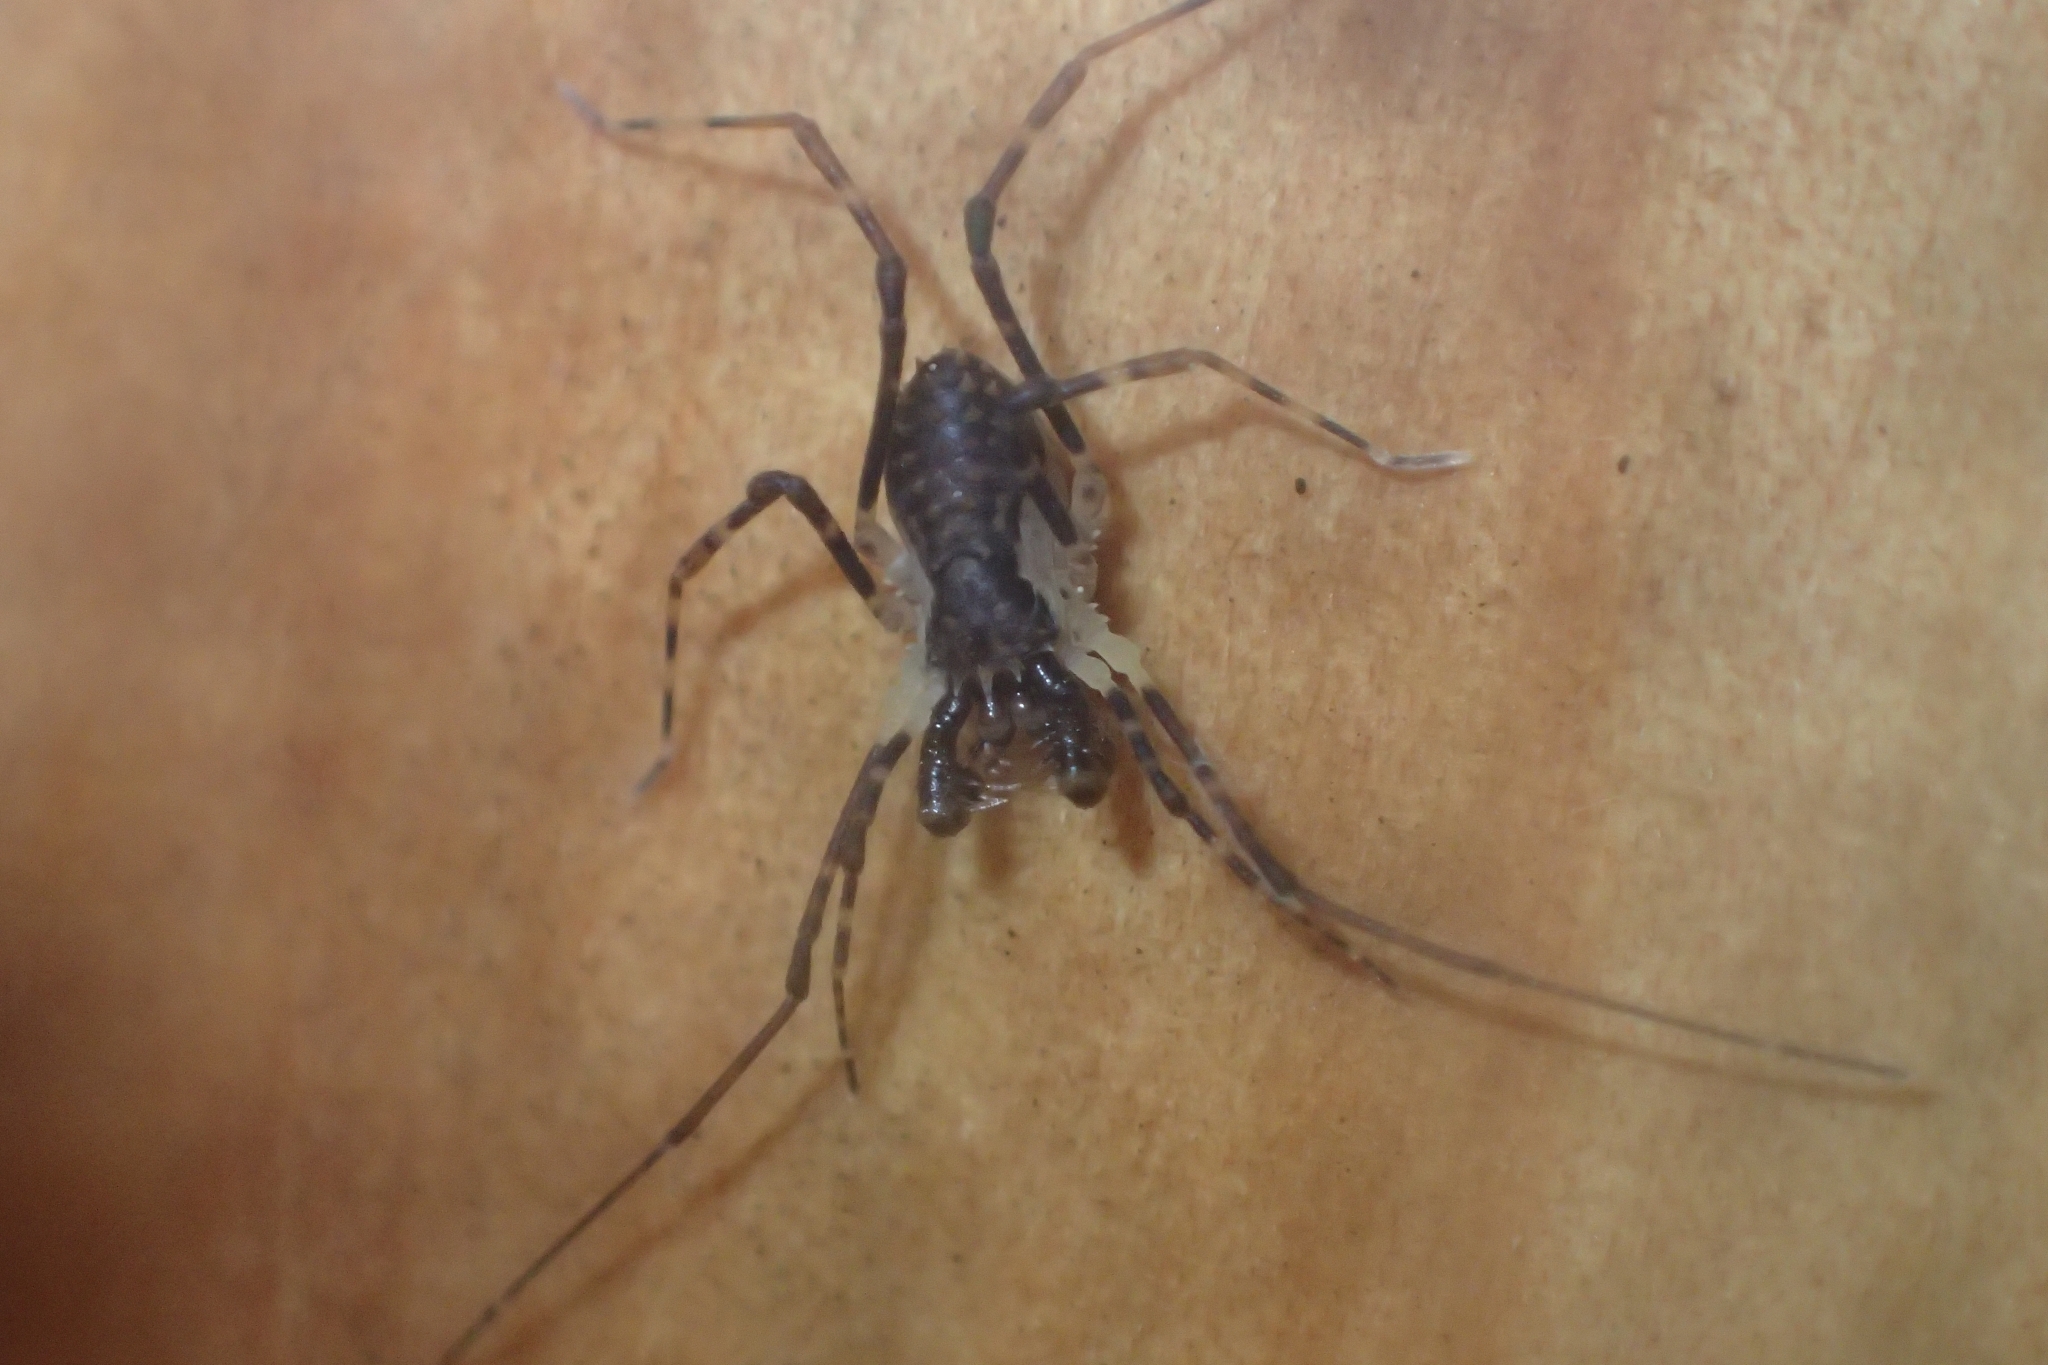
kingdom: Animalia
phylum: Arthropoda
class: Arachnida
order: Opiliones
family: Triaenonychidae
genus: Algidia
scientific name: Algidia chiltoni
